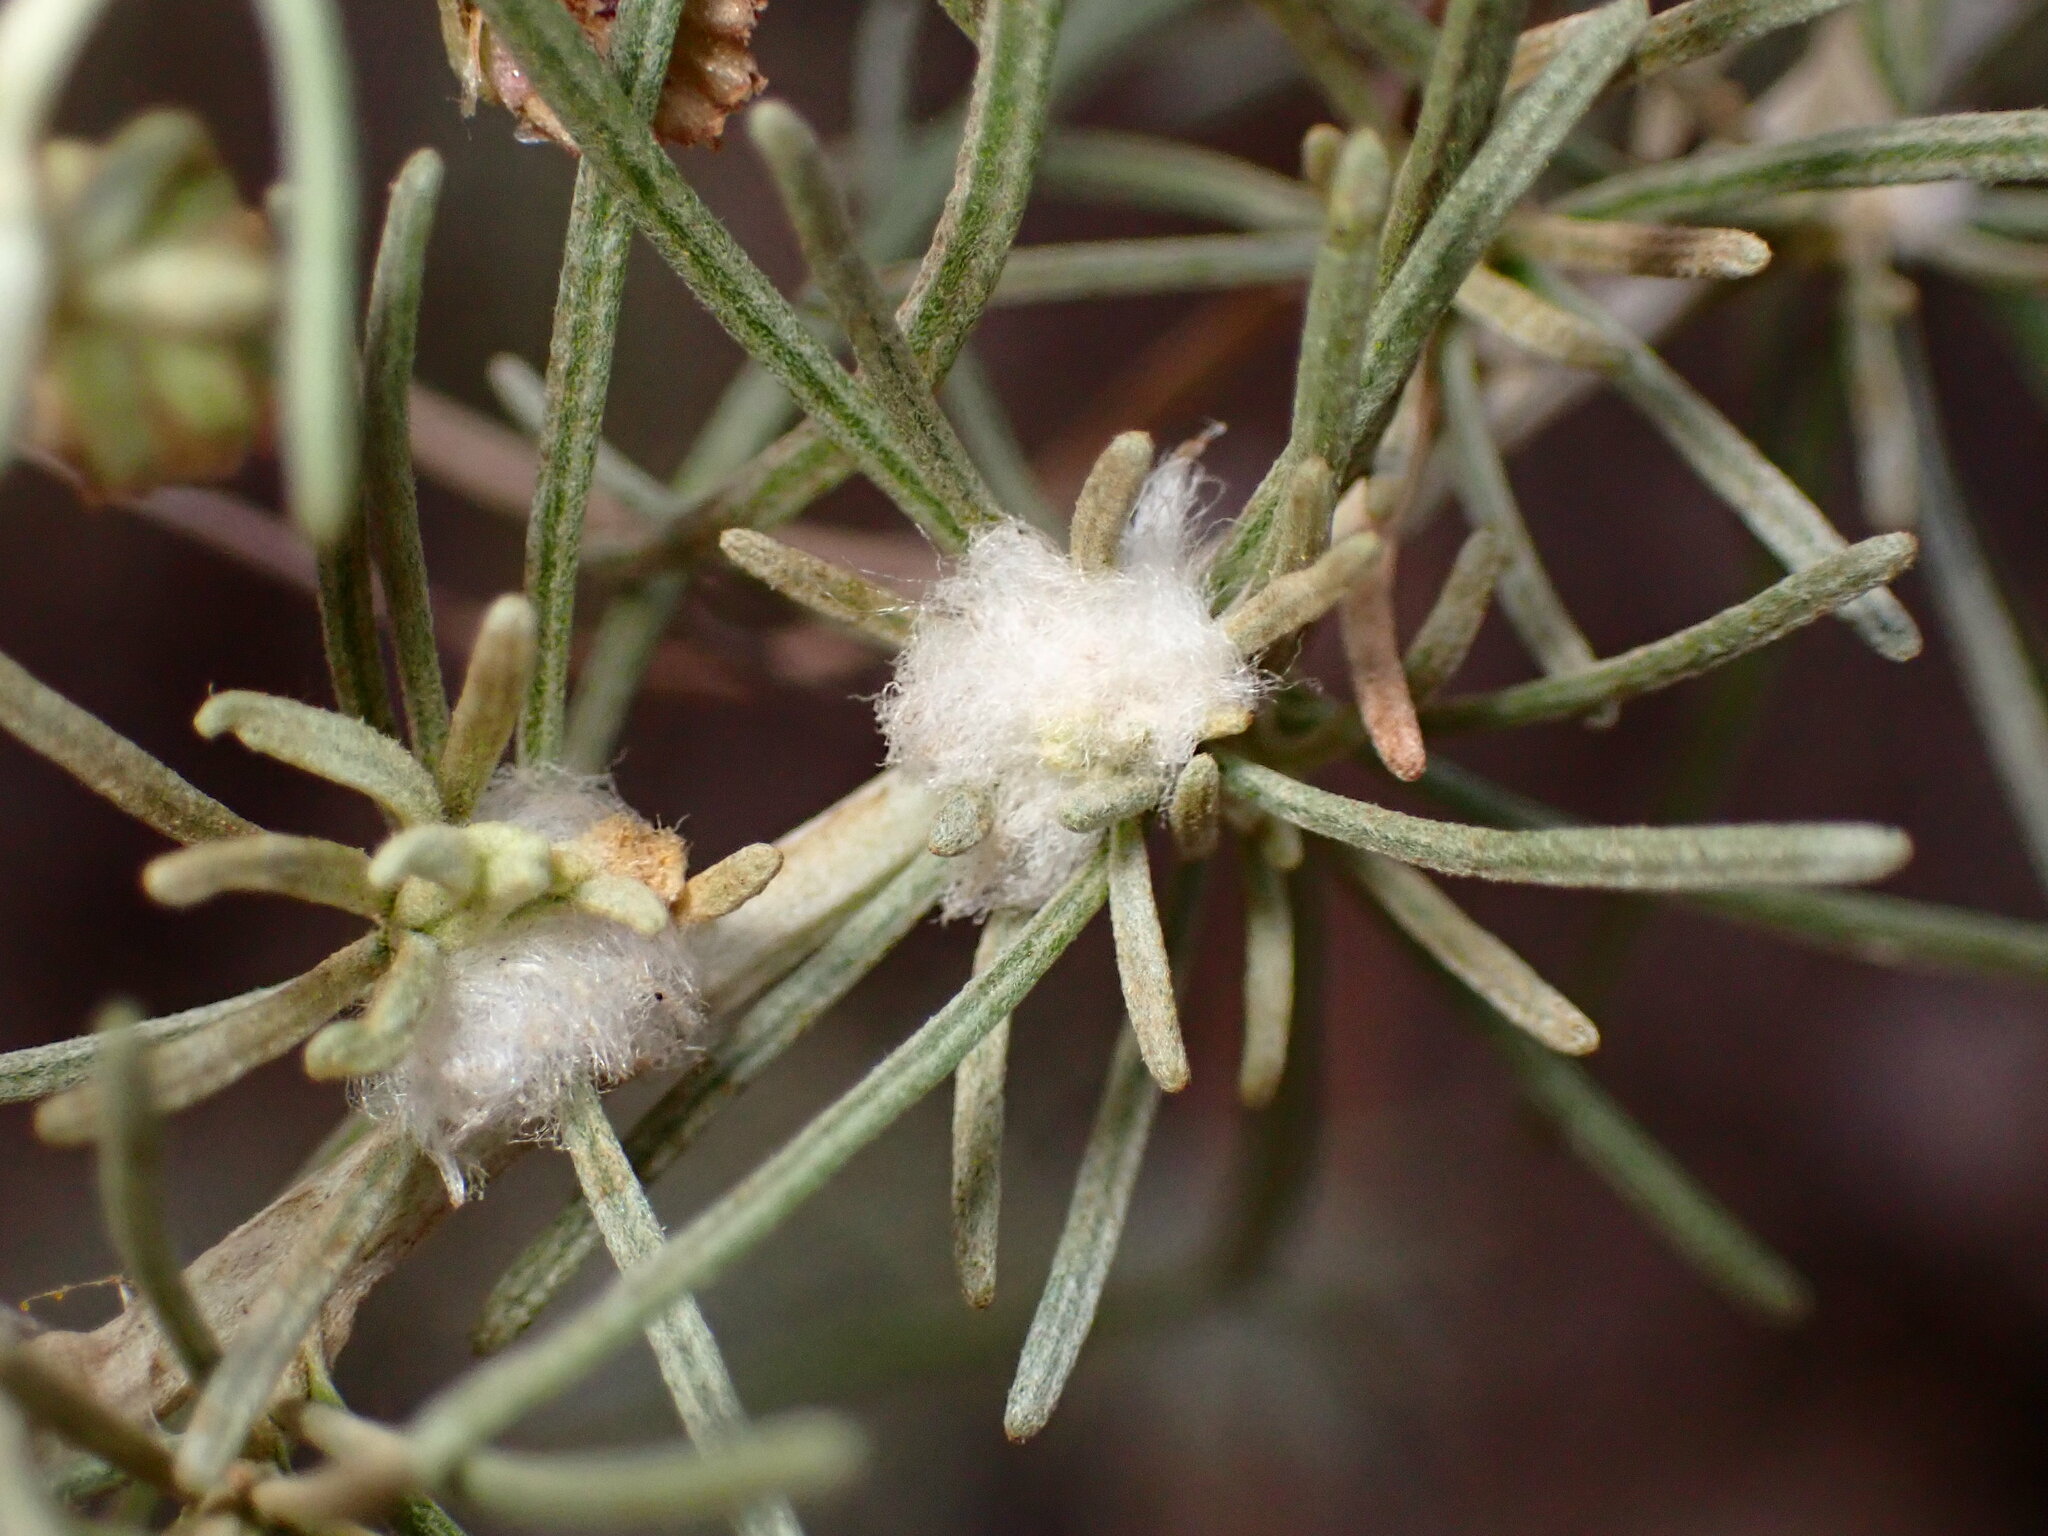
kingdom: Animalia
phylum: Arthropoda
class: Insecta
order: Diptera
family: Cecidomyiidae
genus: Rhopalomyia
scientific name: Rhopalomyia floccosa
